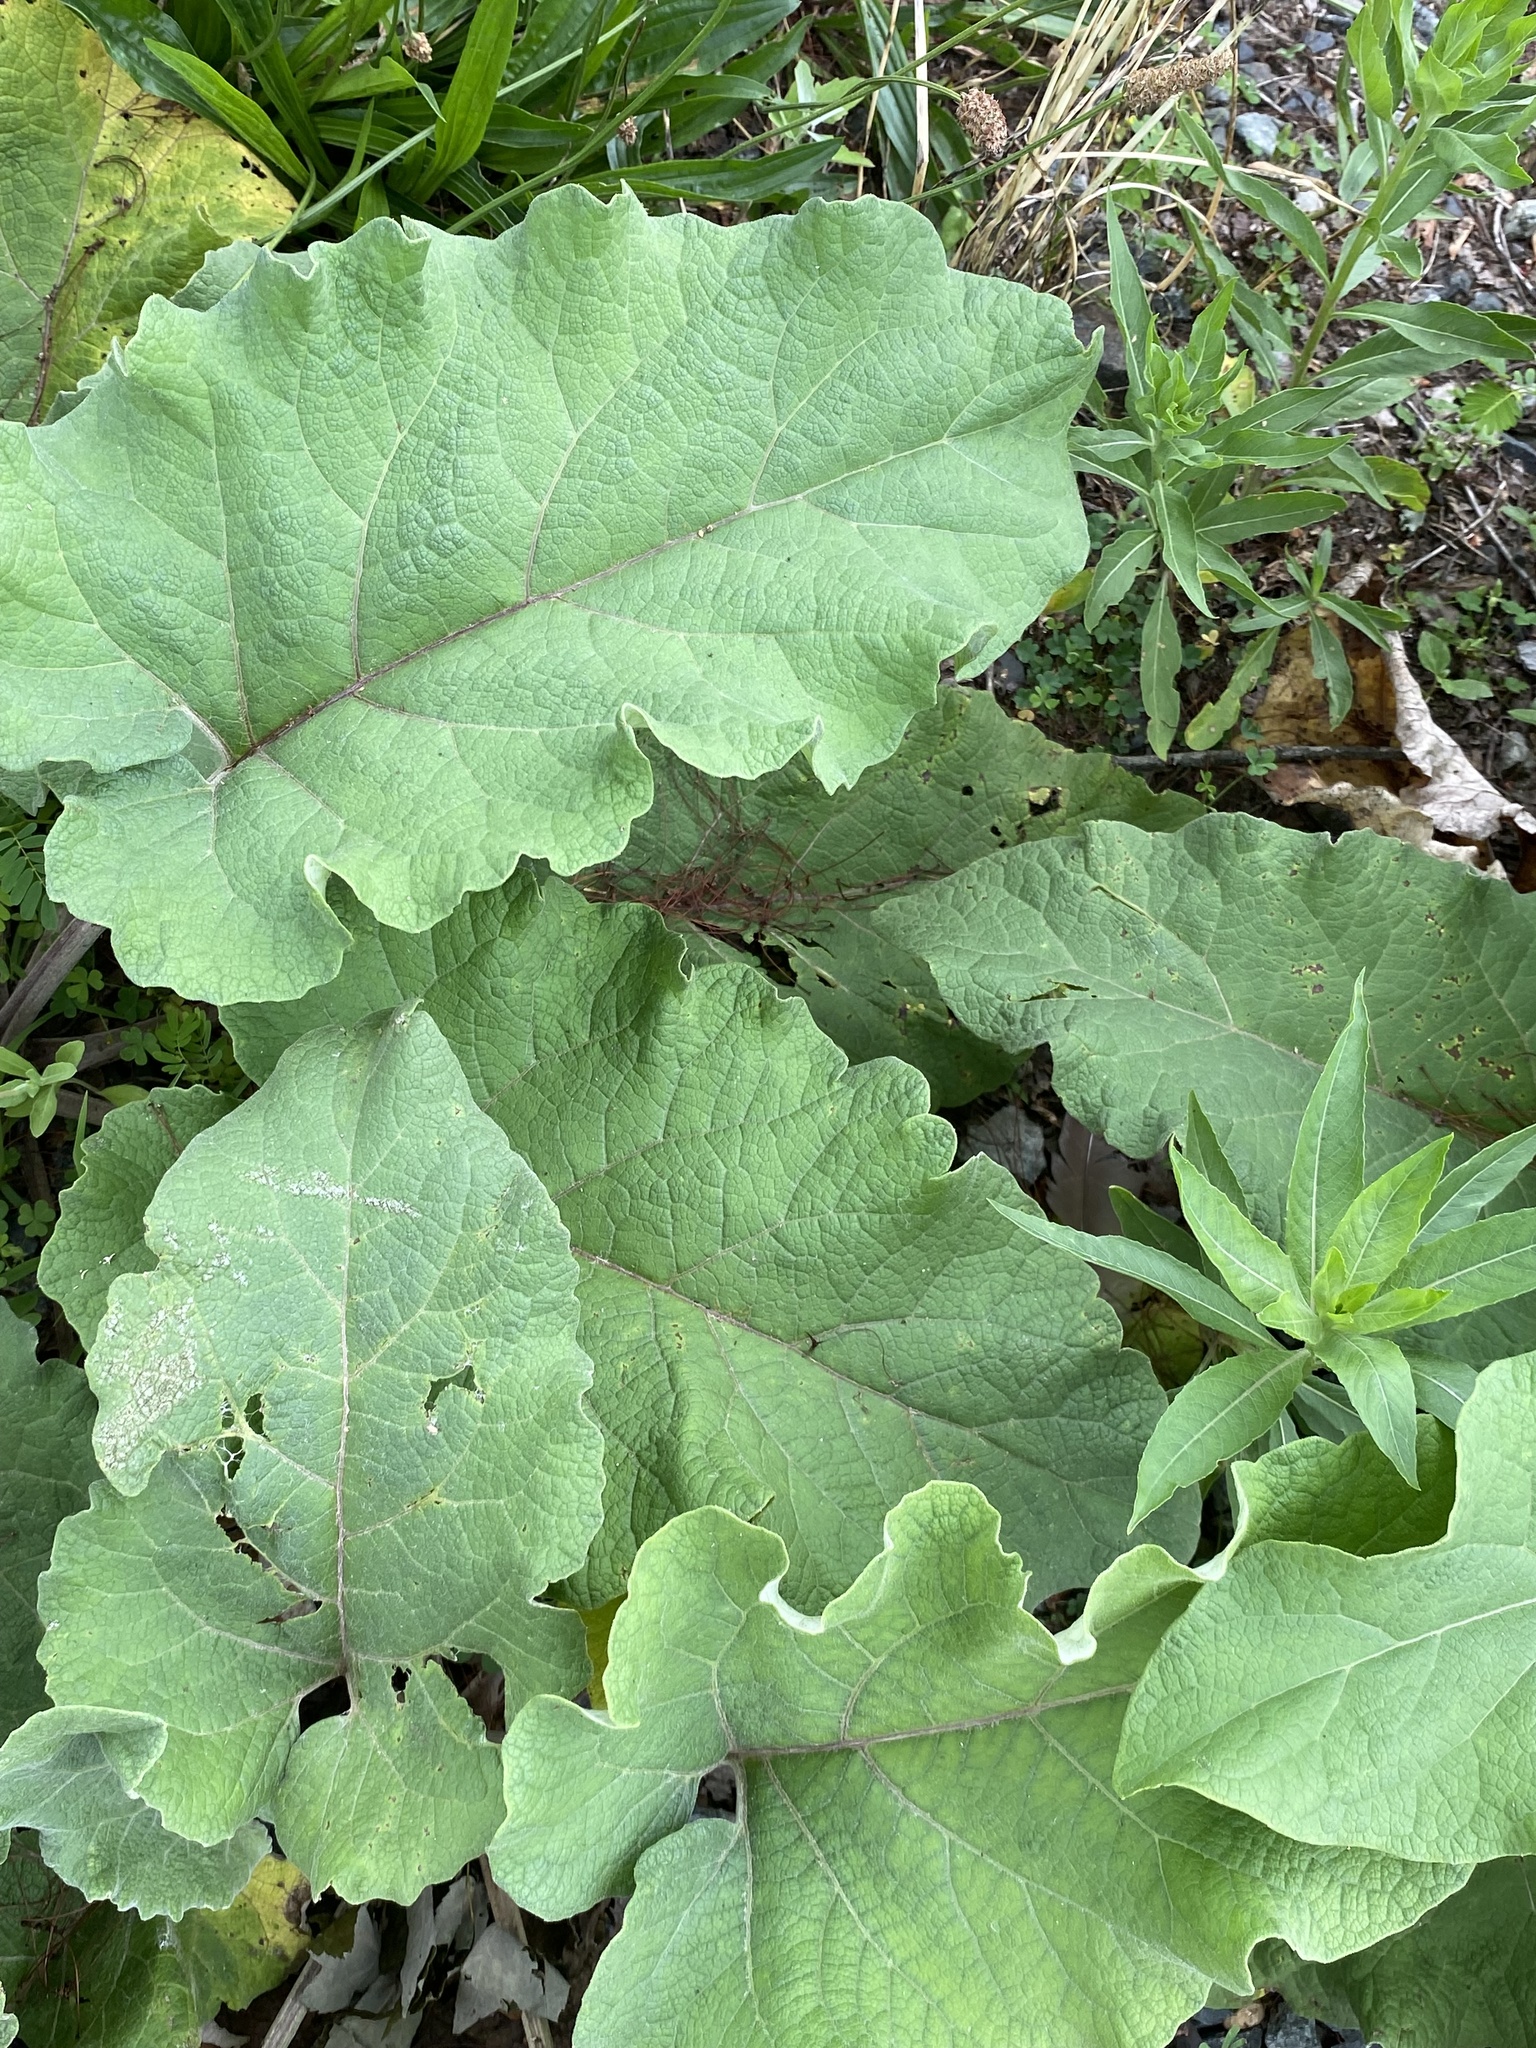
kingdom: Plantae
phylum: Tracheophyta
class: Magnoliopsida
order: Asterales
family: Asteraceae
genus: Arctium
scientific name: Arctium
